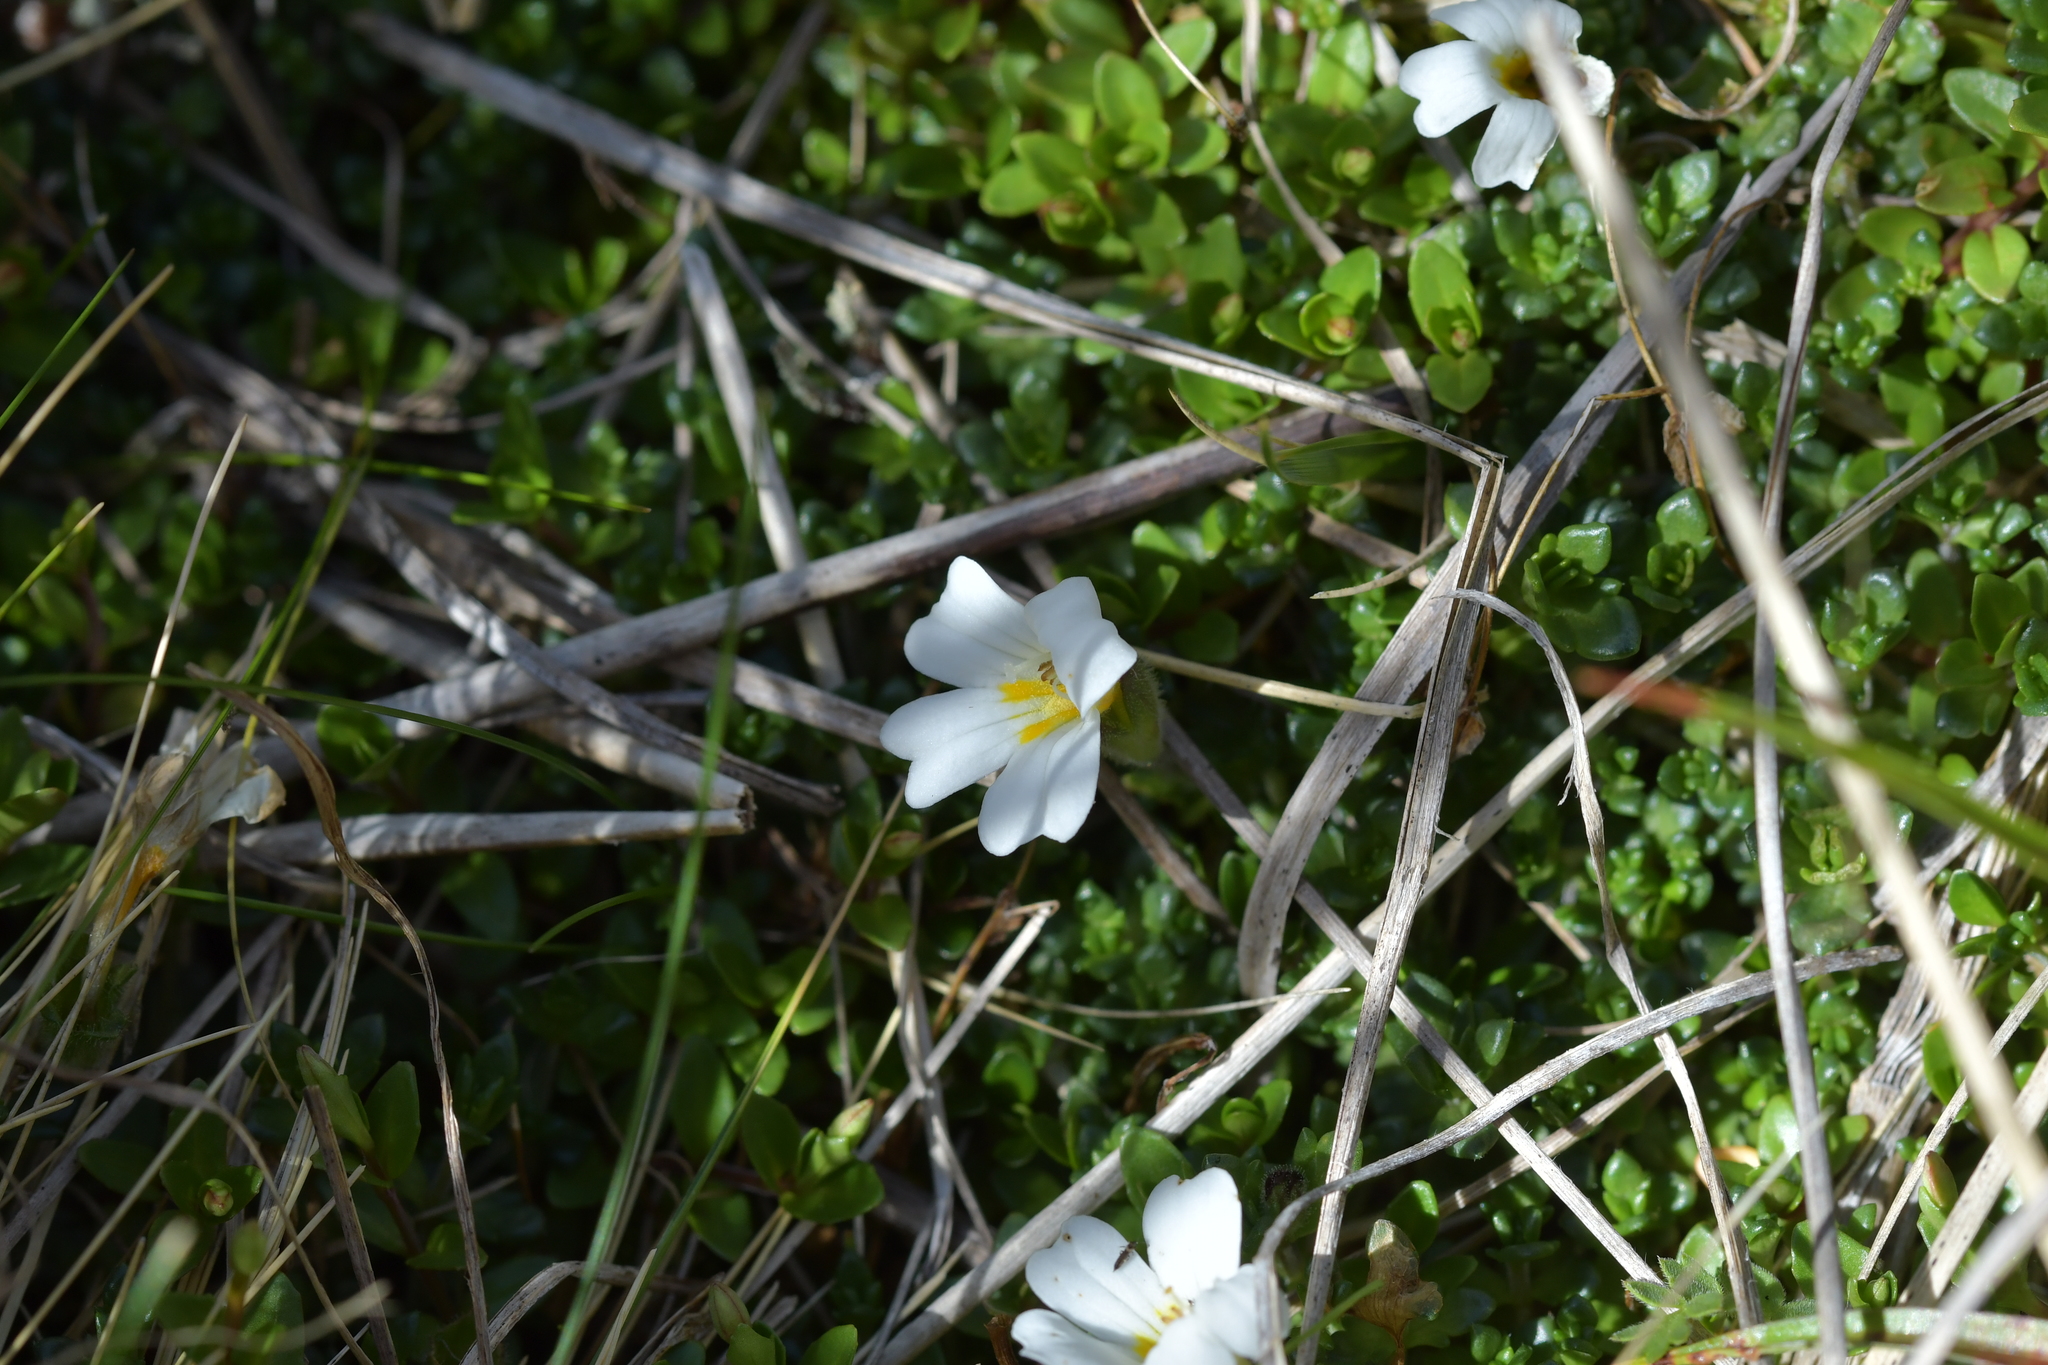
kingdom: Plantae
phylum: Tracheophyta
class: Magnoliopsida
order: Lamiales
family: Orobanchaceae
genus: Euphrasia
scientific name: Euphrasia petriei
